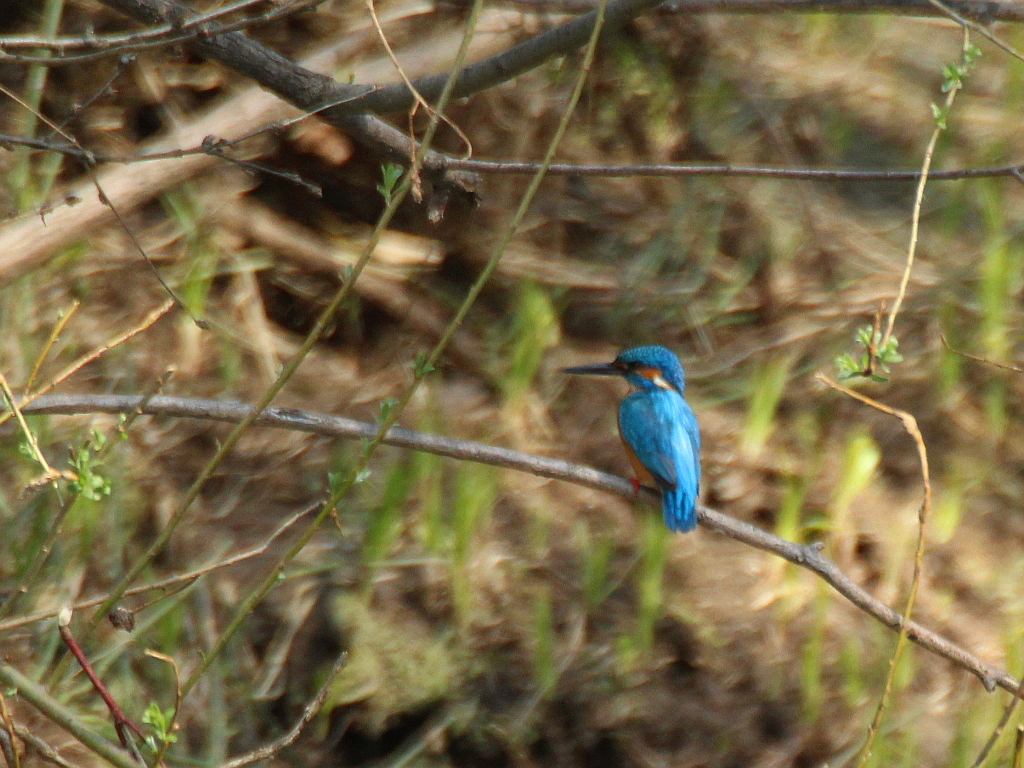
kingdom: Animalia
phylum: Chordata
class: Aves
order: Coraciiformes
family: Alcedinidae
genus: Alcedo
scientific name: Alcedo atthis
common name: Common kingfisher
